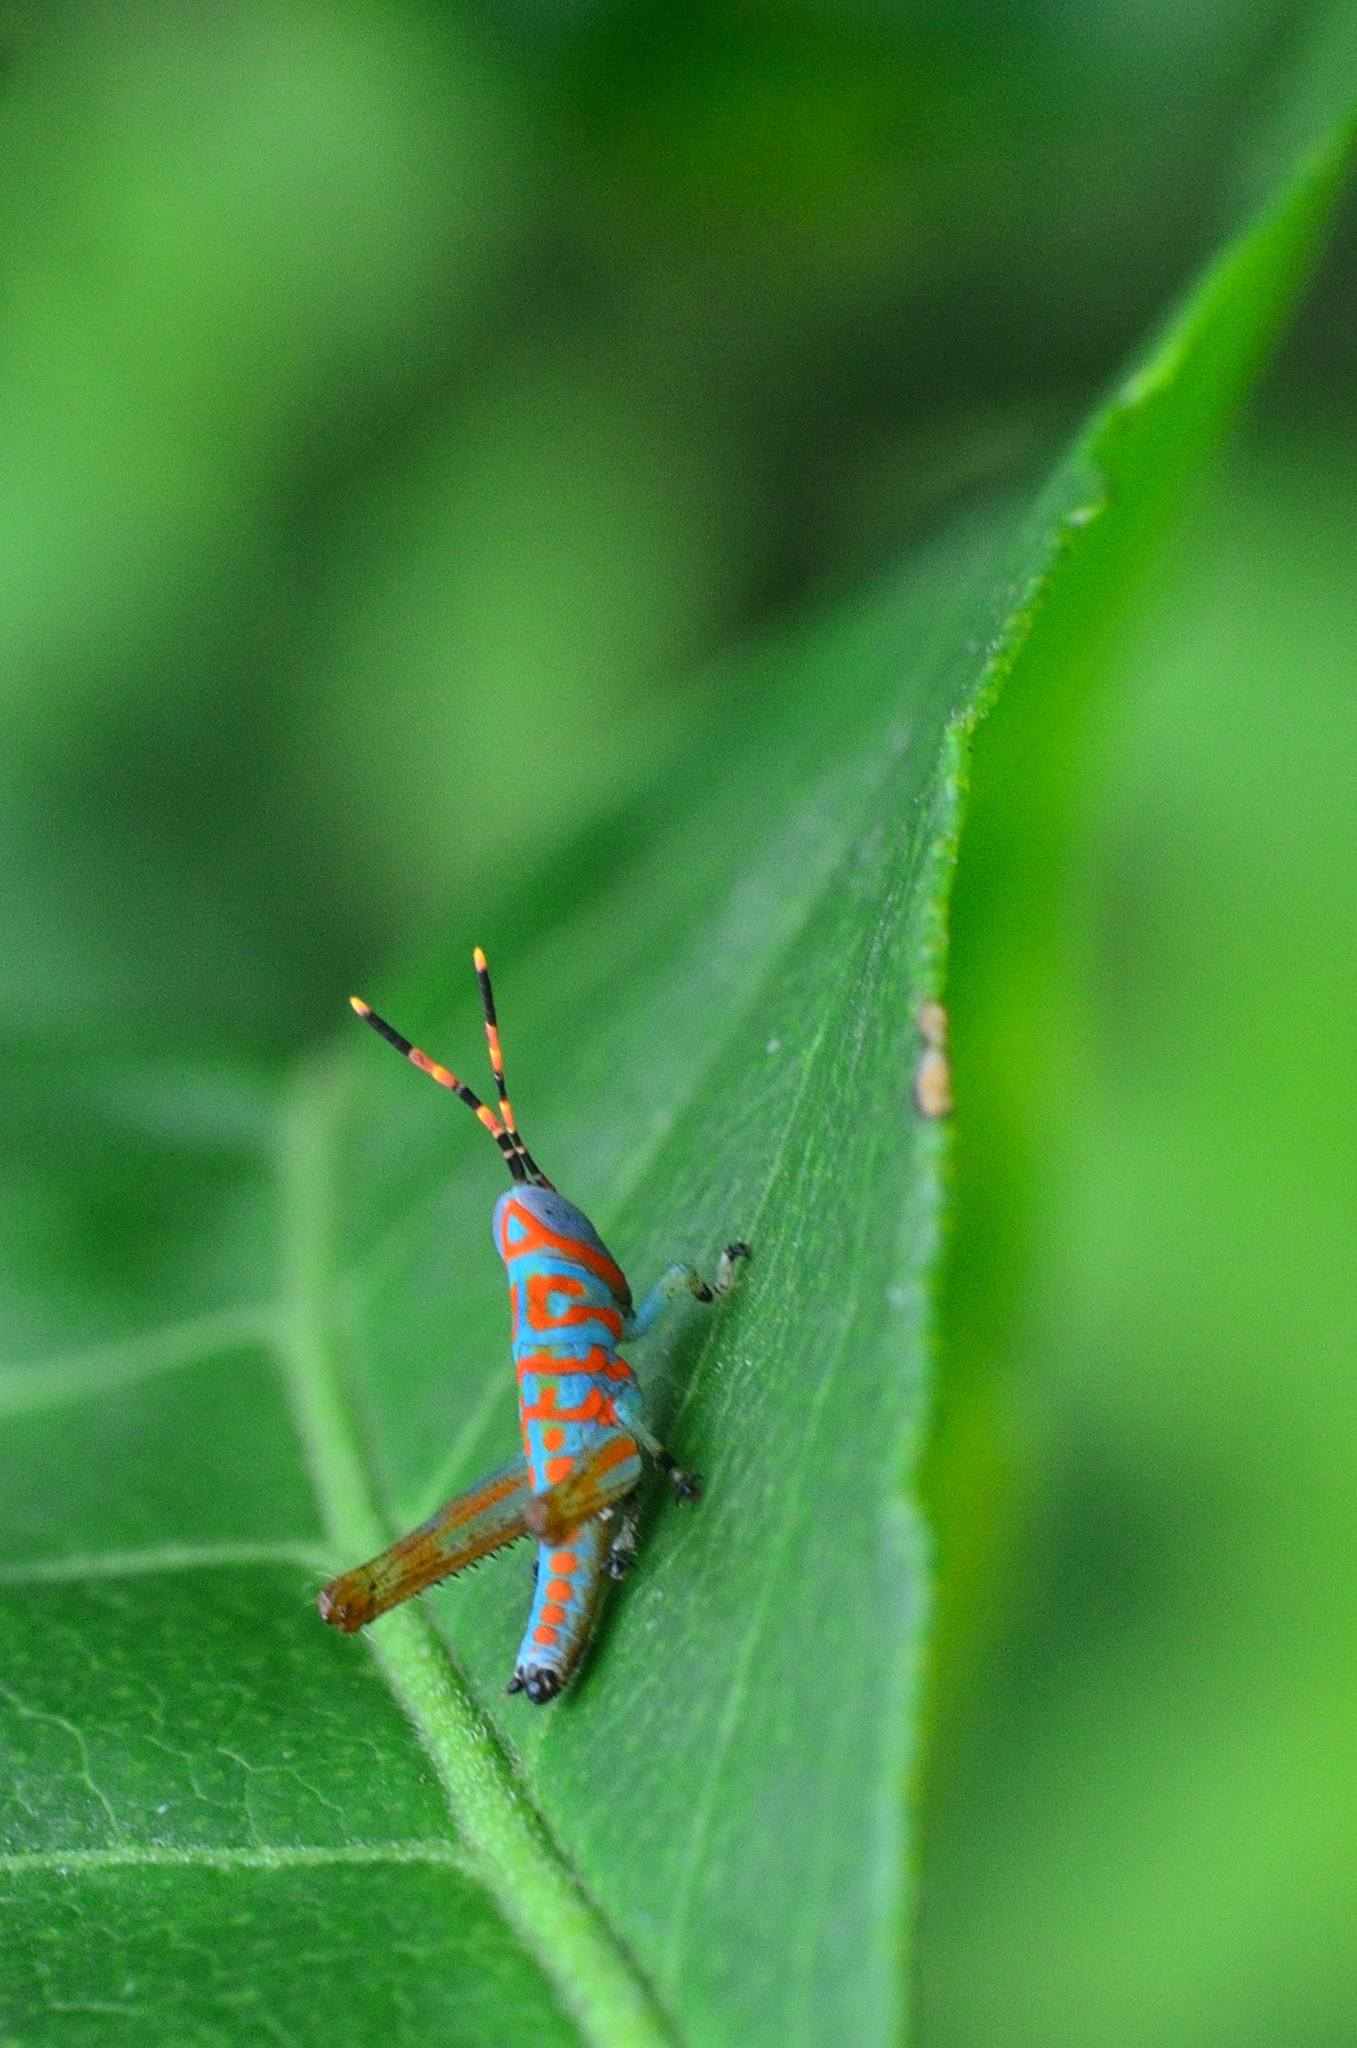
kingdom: Animalia
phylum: Arthropoda
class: Insecta
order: Orthoptera
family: Acrididae
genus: Pirithoicus
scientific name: Pirithoicus ophthalmicus
